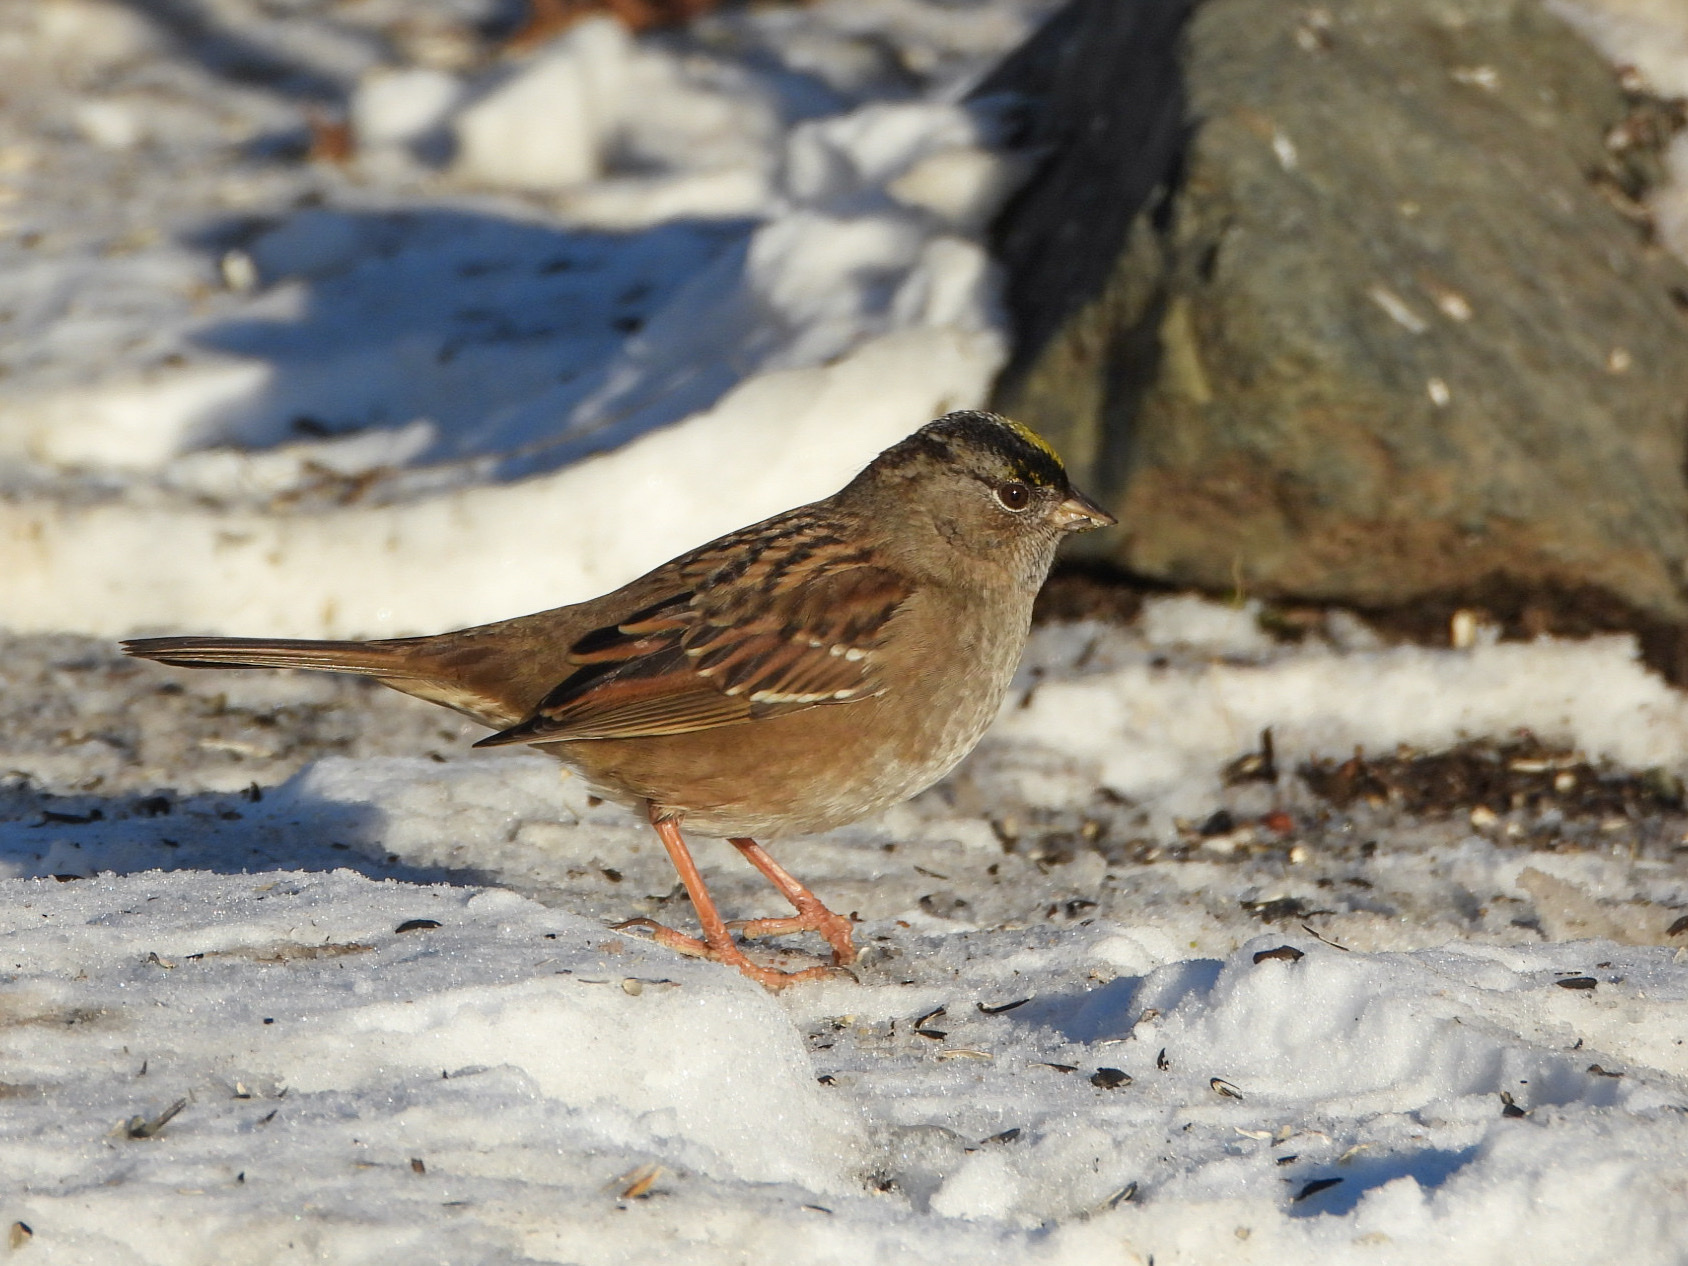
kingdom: Animalia
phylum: Chordata
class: Aves
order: Passeriformes
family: Passerellidae
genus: Zonotrichia
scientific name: Zonotrichia atricapilla
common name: Golden-crowned sparrow
